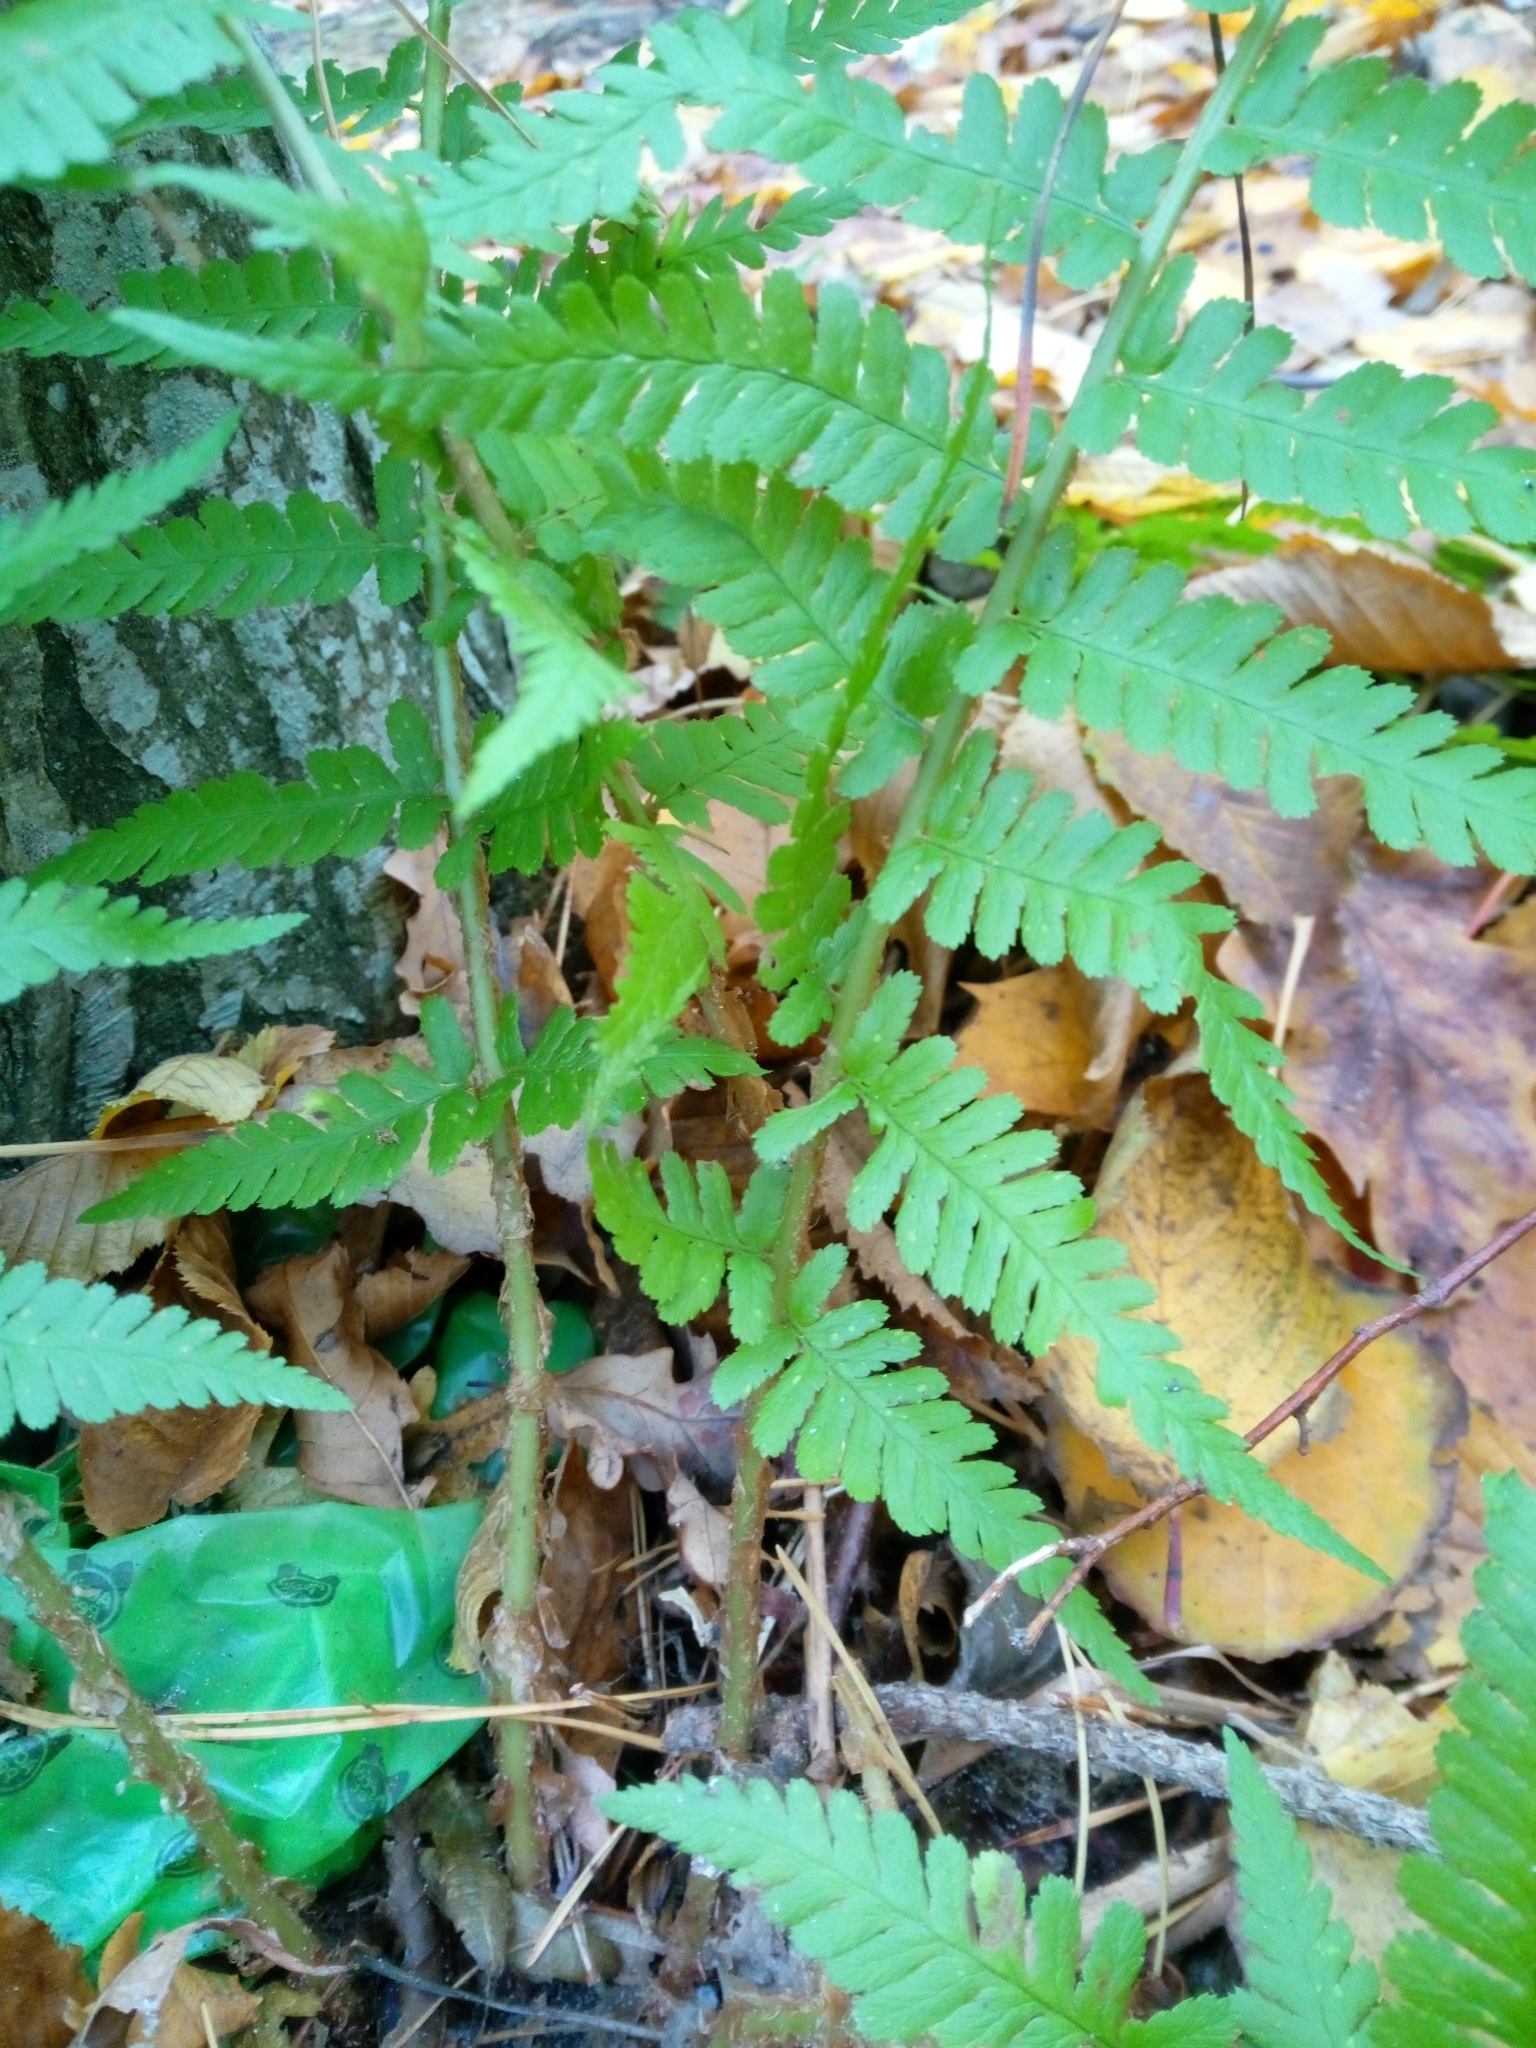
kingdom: Plantae
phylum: Tracheophyta
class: Polypodiopsida
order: Polypodiales
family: Dryopteridaceae
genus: Dryopteris
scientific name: Dryopteris filix-mas
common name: Male fern
